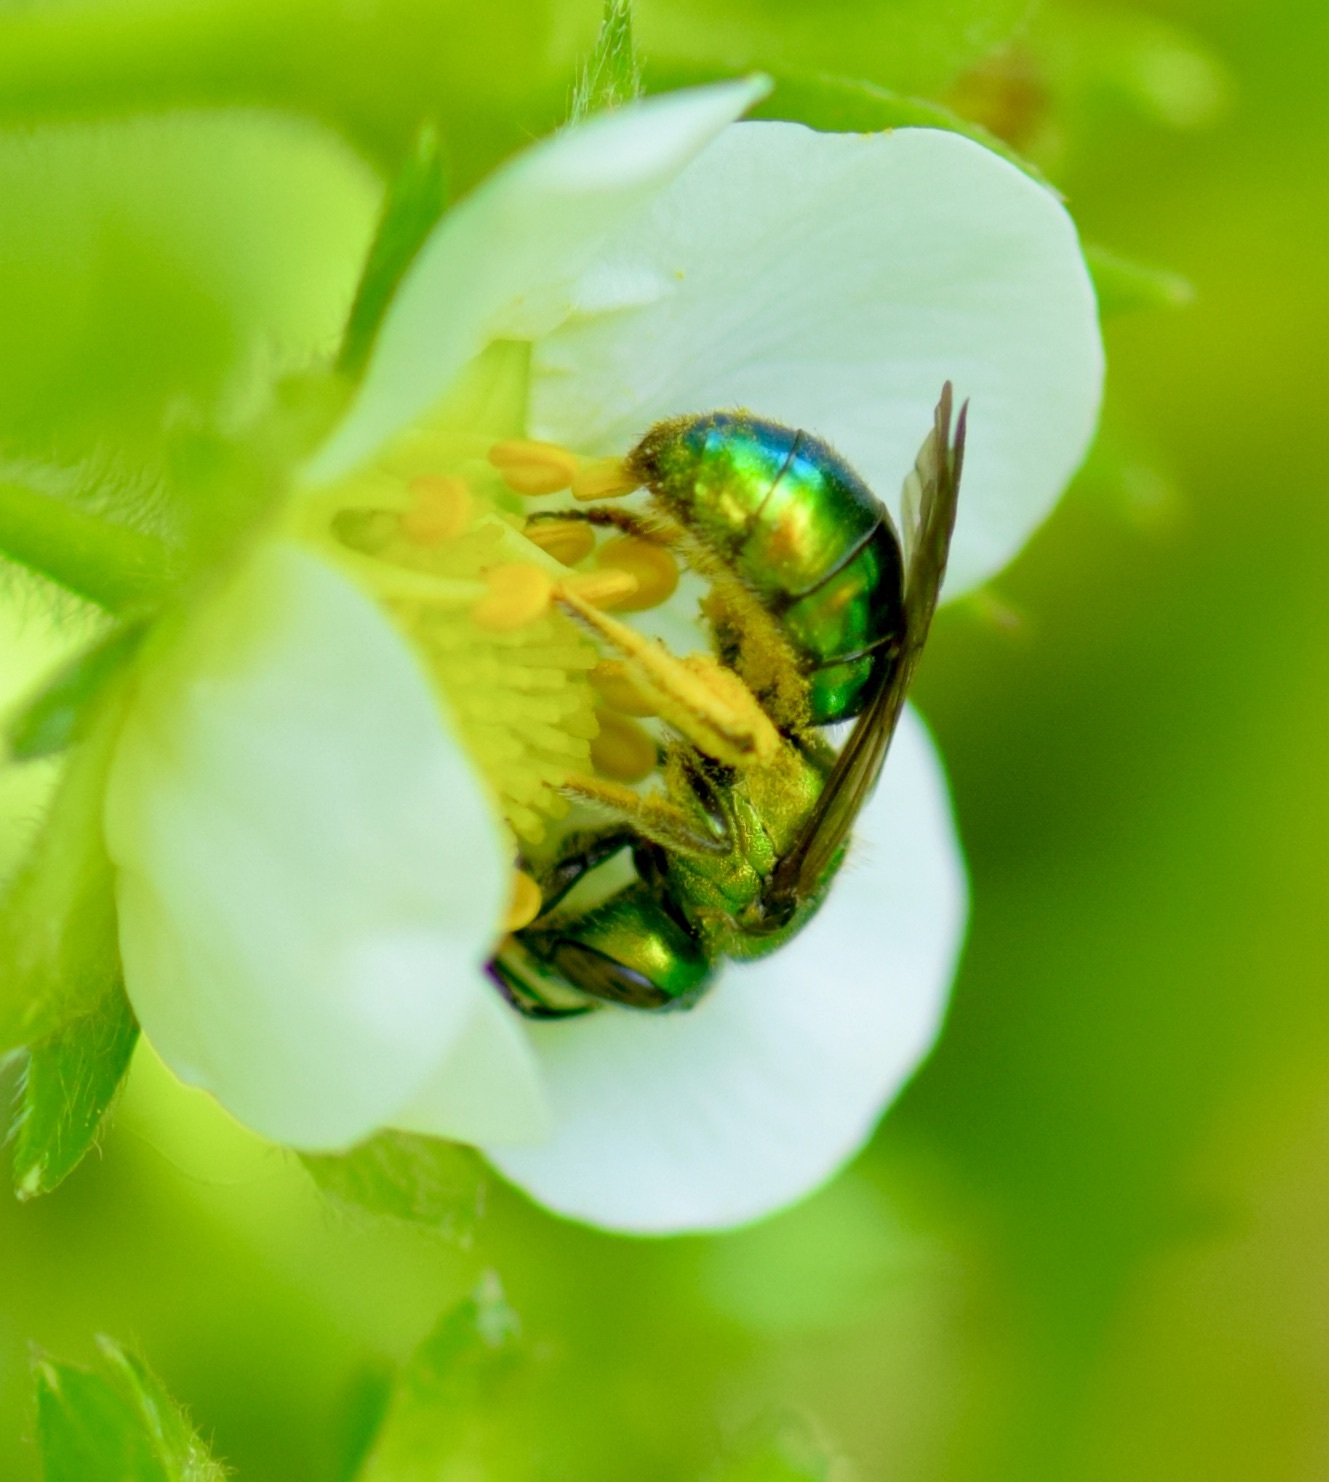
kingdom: Animalia
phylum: Arthropoda
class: Insecta
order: Hymenoptera
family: Halictidae
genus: Augochlora
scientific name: Augochlora pura
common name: Pure green sweat bee
